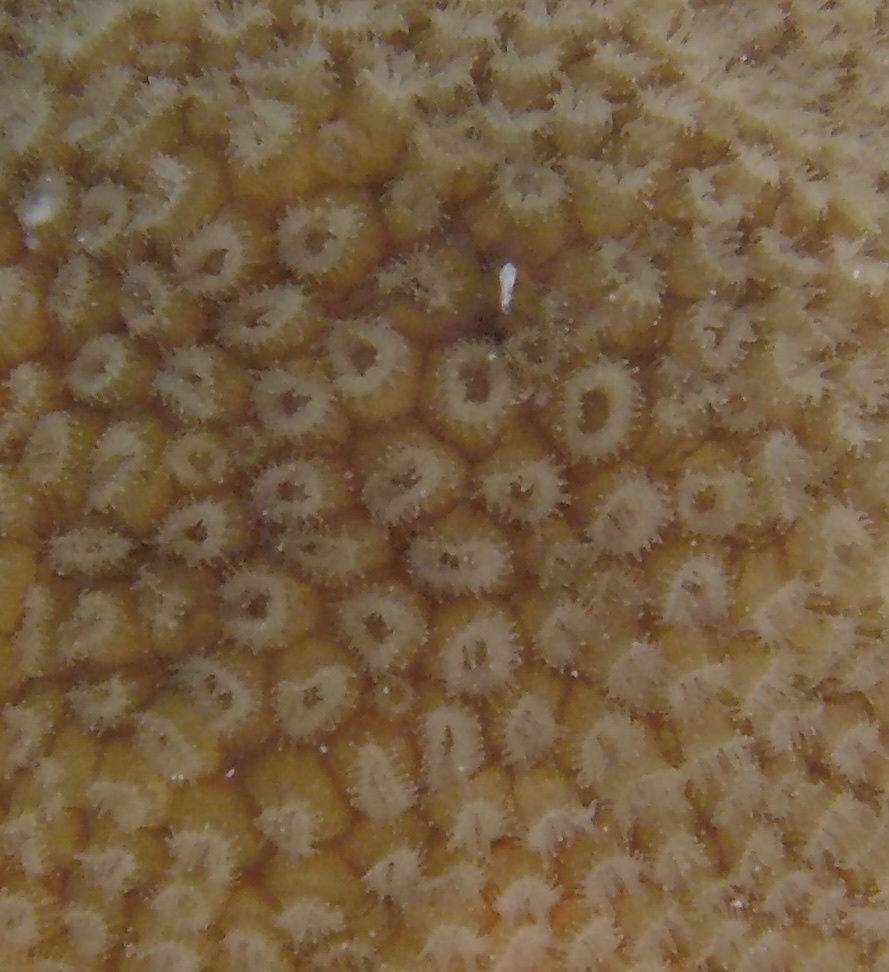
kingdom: Animalia
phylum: Cnidaria
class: Anthozoa
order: Scleractinia
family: Montastraeidae
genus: Montastraea
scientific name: Montastraea cavernosa
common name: Great star coral
